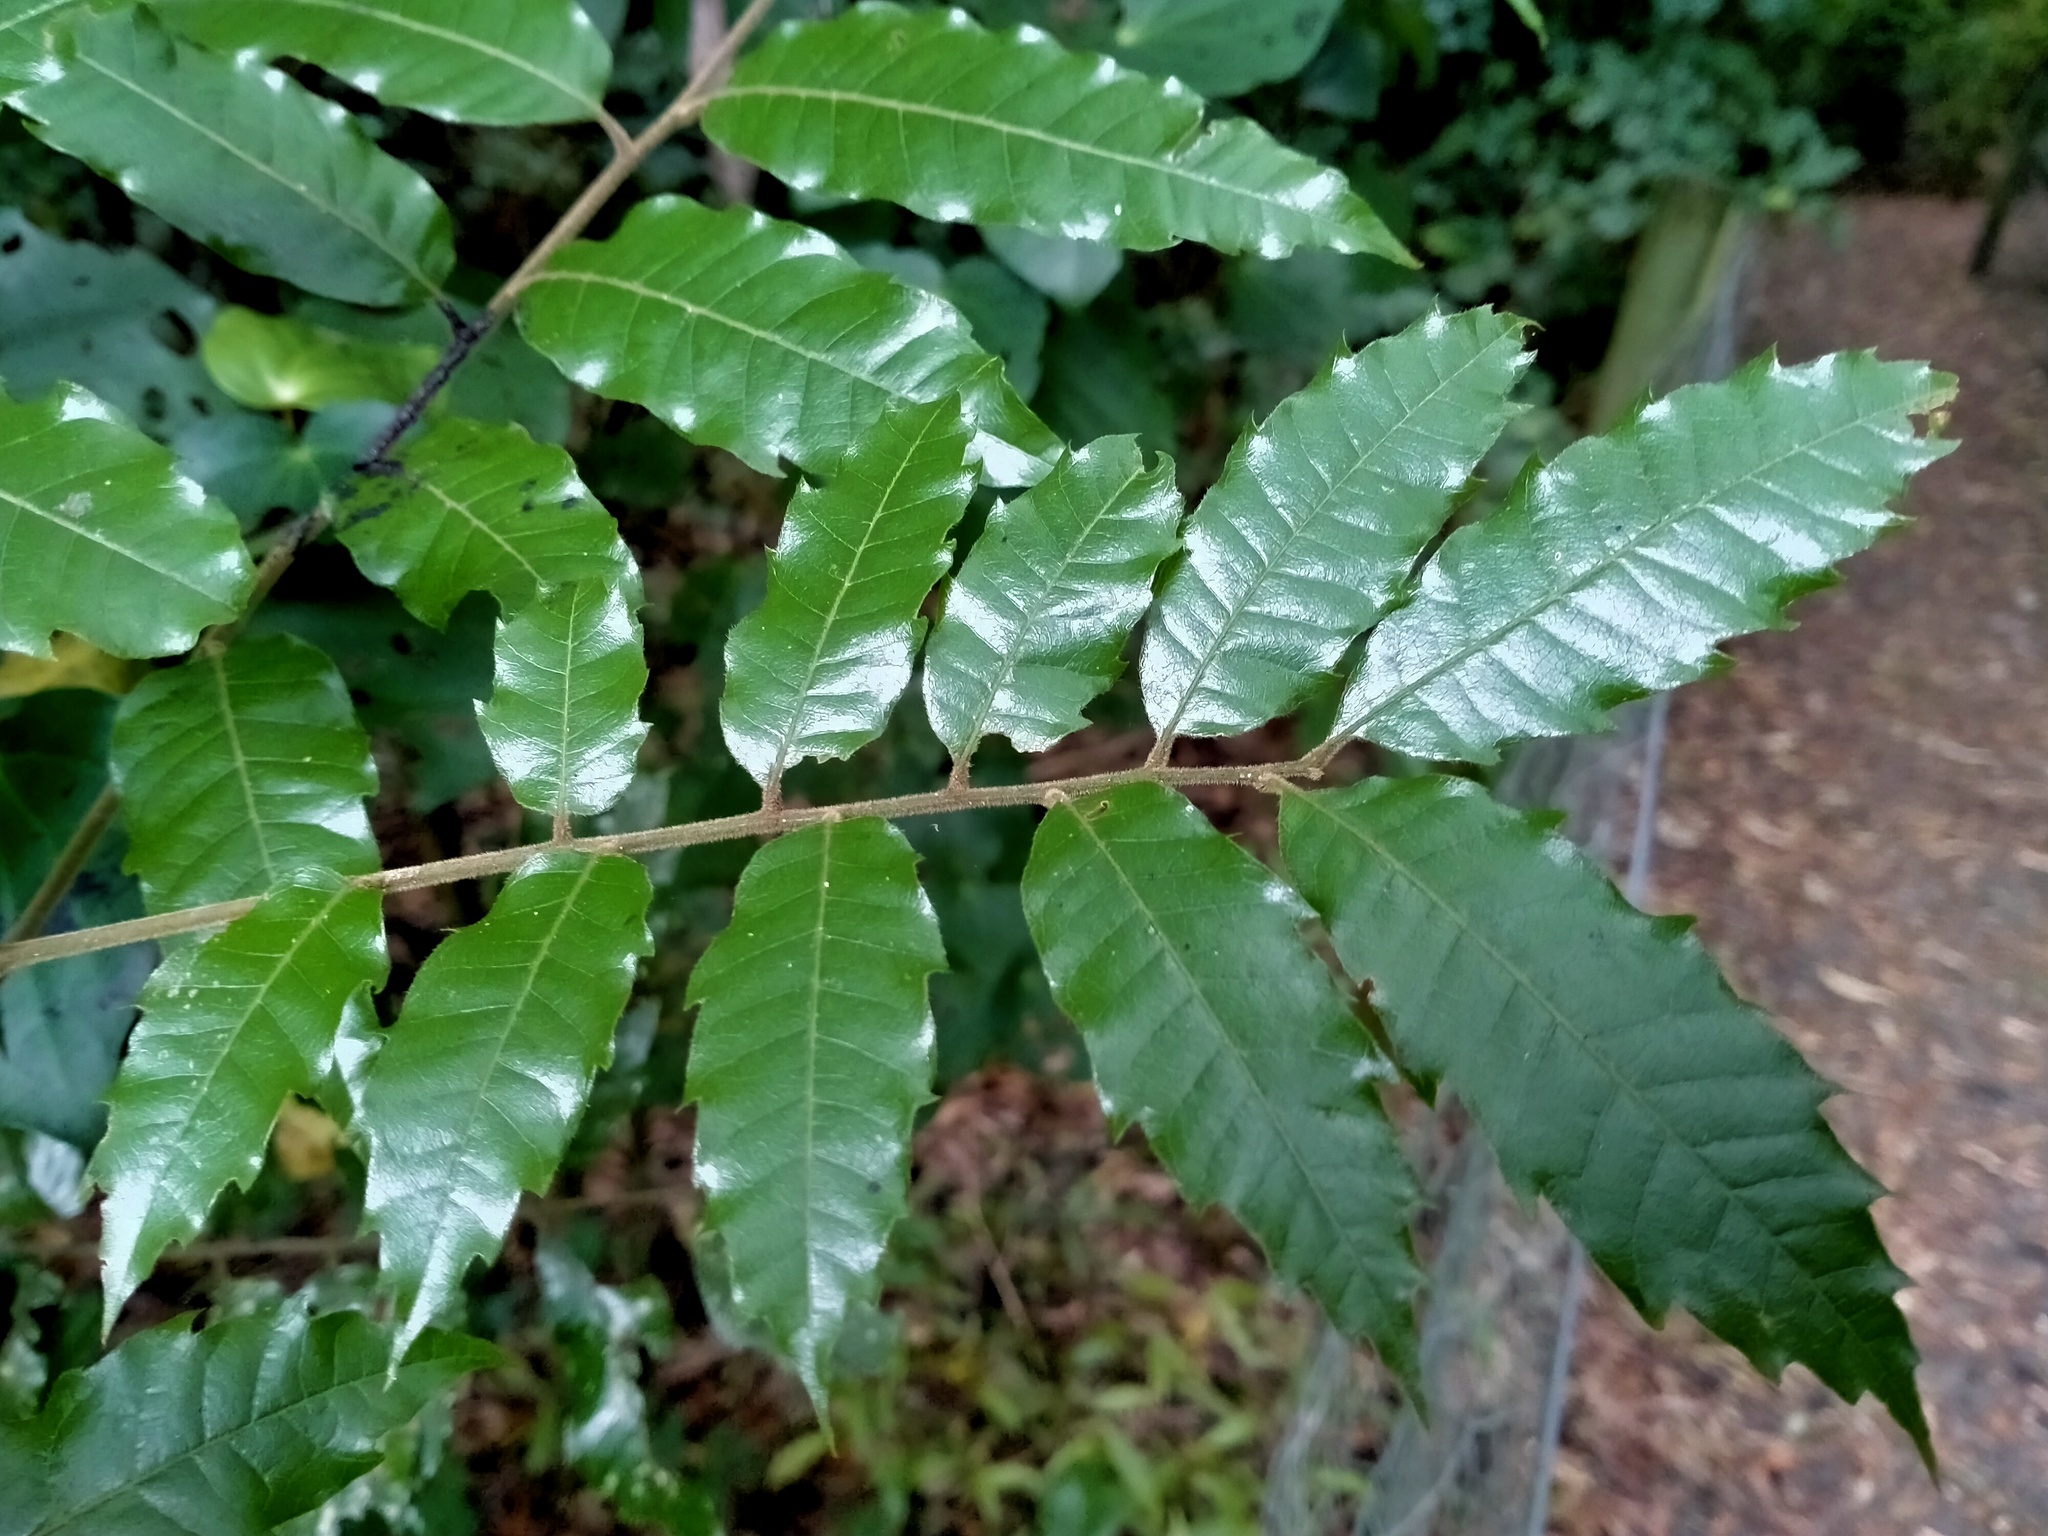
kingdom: Plantae
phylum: Tracheophyta
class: Magnoliopsida
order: Sapindales
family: Sapindaceae
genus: Alectryon
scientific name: Alectryon excelsus
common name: Three kings titoki
